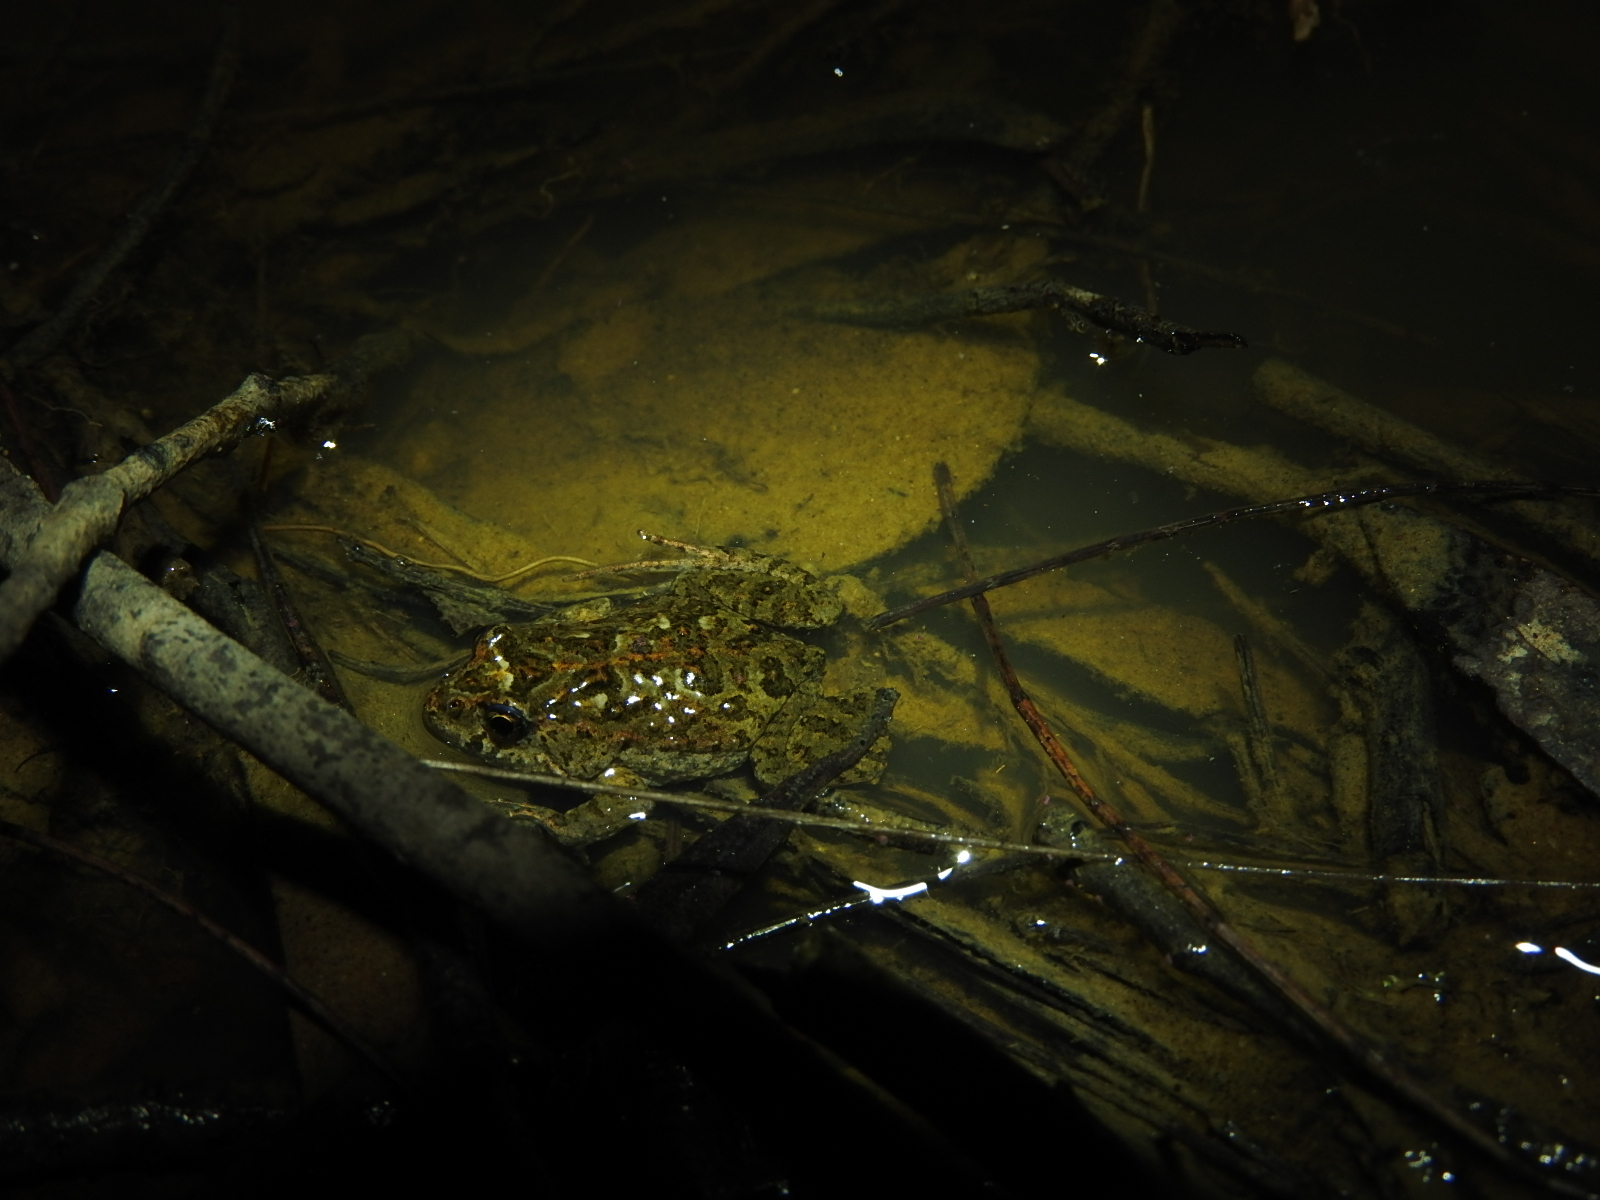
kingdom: Animalia
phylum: Chordata
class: Amphibia
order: Anura
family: Myobatrachidae
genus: Crinia
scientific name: Crinia signifera
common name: Brown froglet
